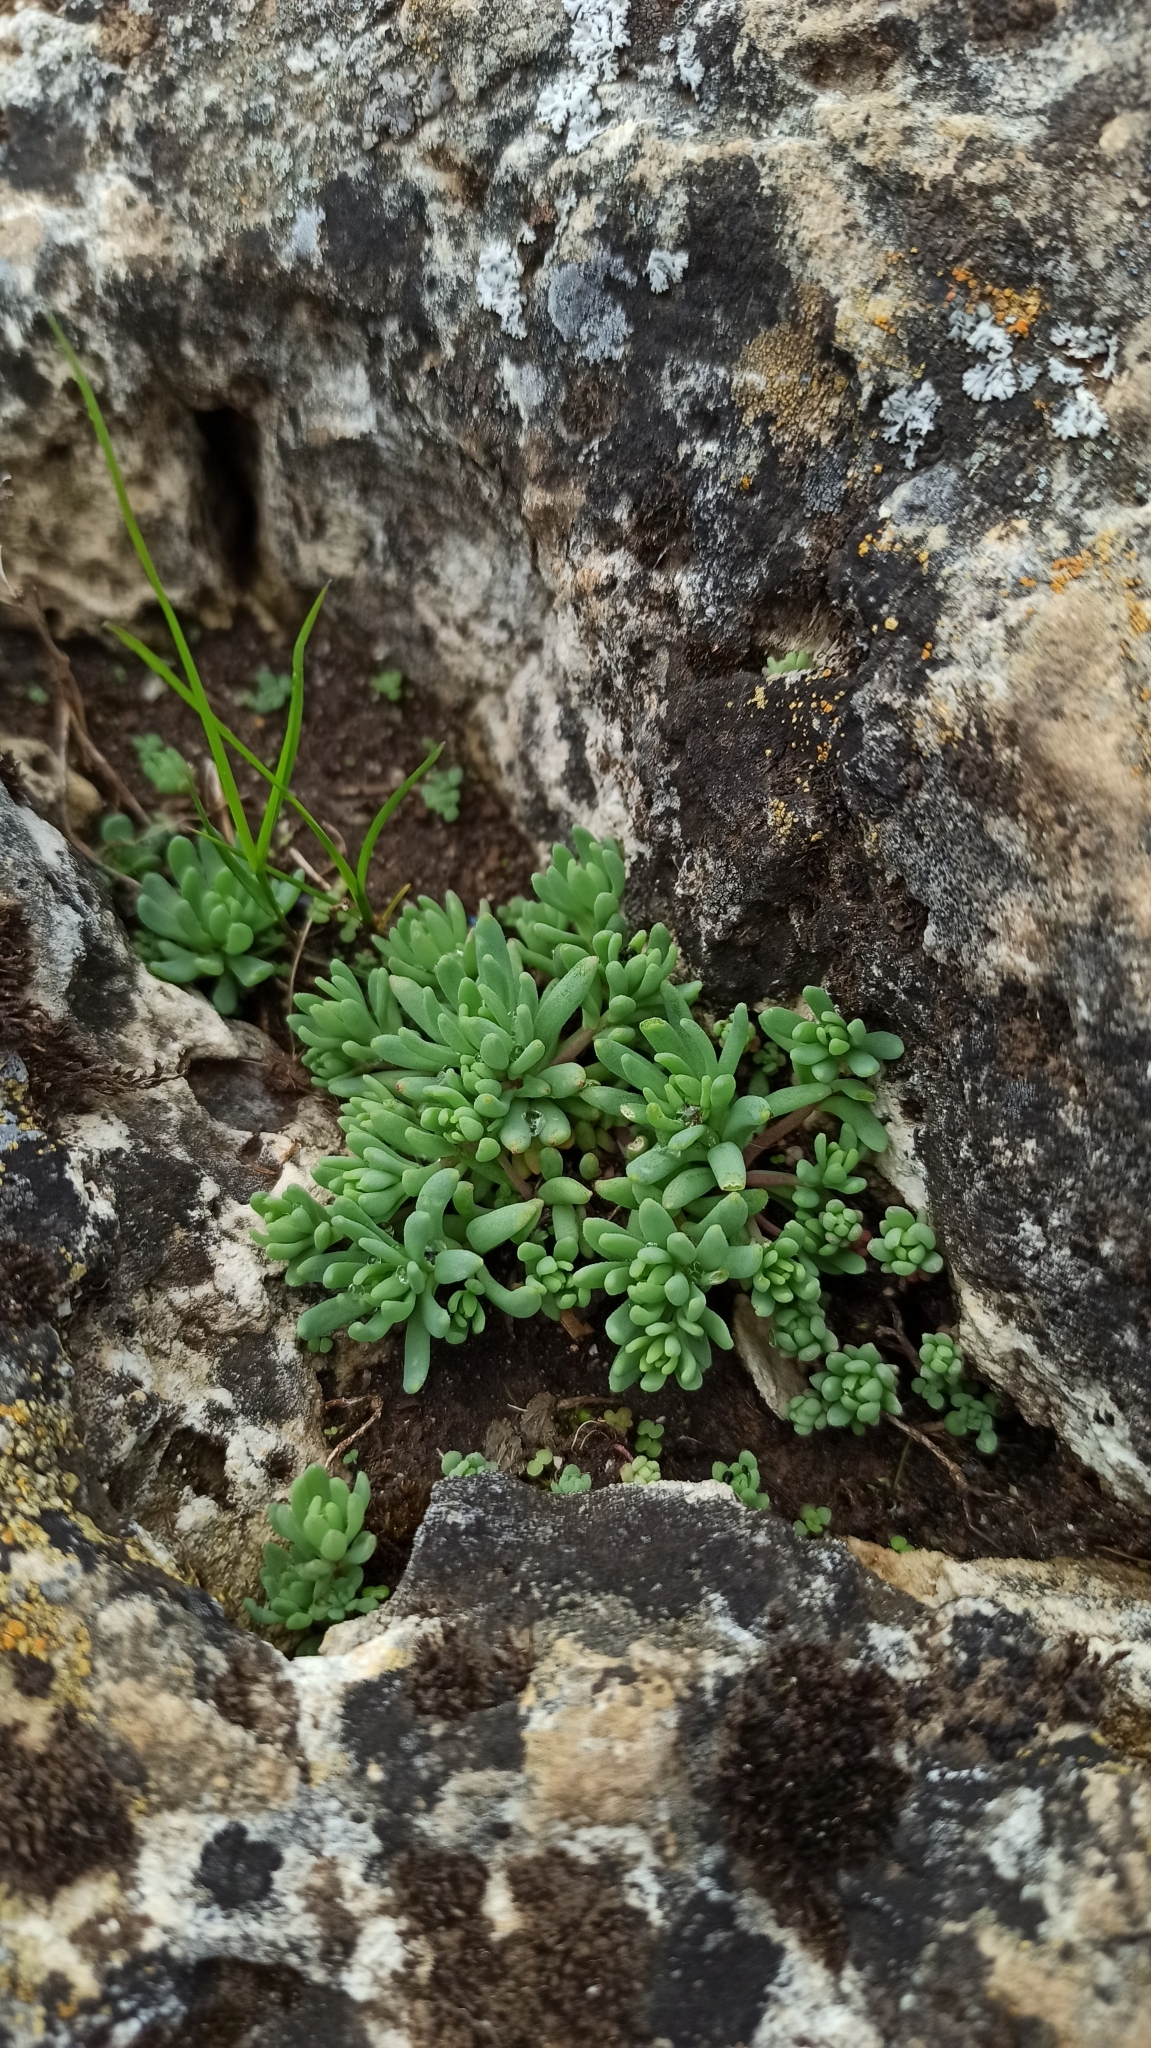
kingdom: Plantae
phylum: Tracheophyta
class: Magnoliopsida
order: Saxifragales
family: Crassulaceae
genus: Sedum
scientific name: Sedum hispanicum
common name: Spanish stonecrop
